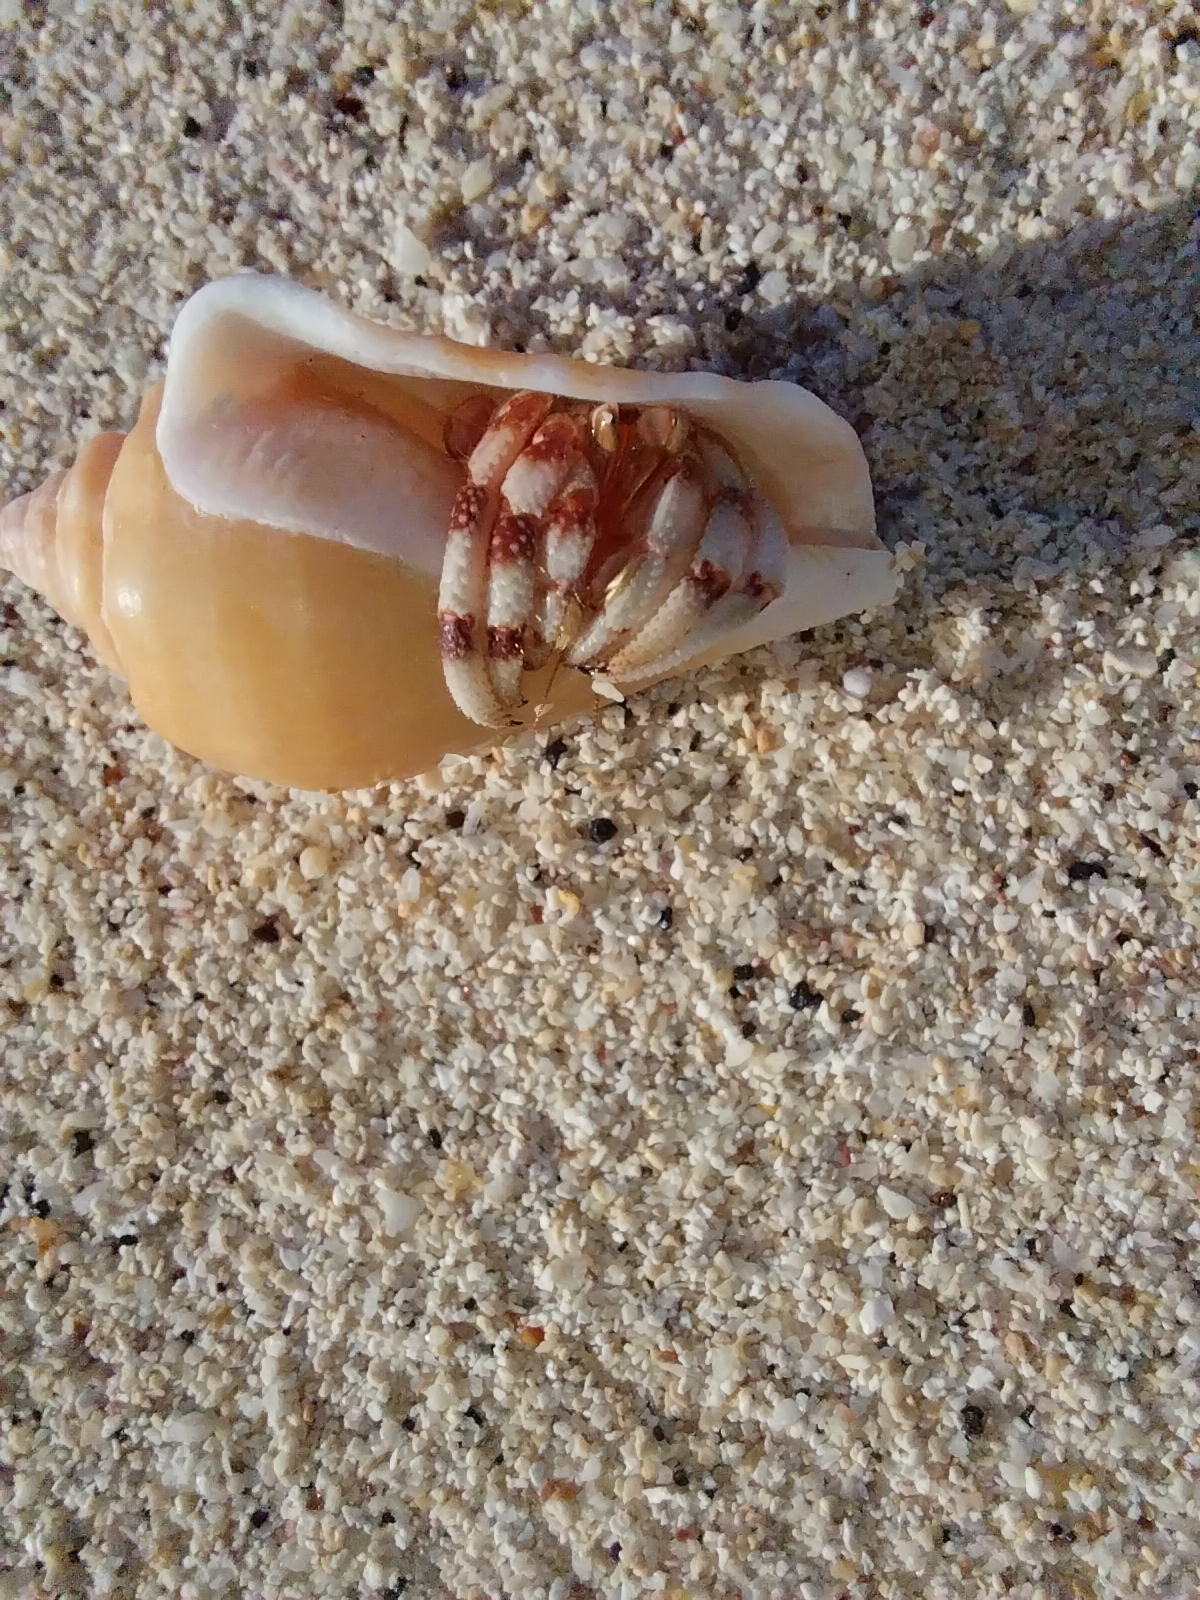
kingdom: Animalia
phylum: Arthropoda
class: Malacostraca
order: Decapoda
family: Coenobitidae
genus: Coenobita
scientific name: Coenobita carnescens
